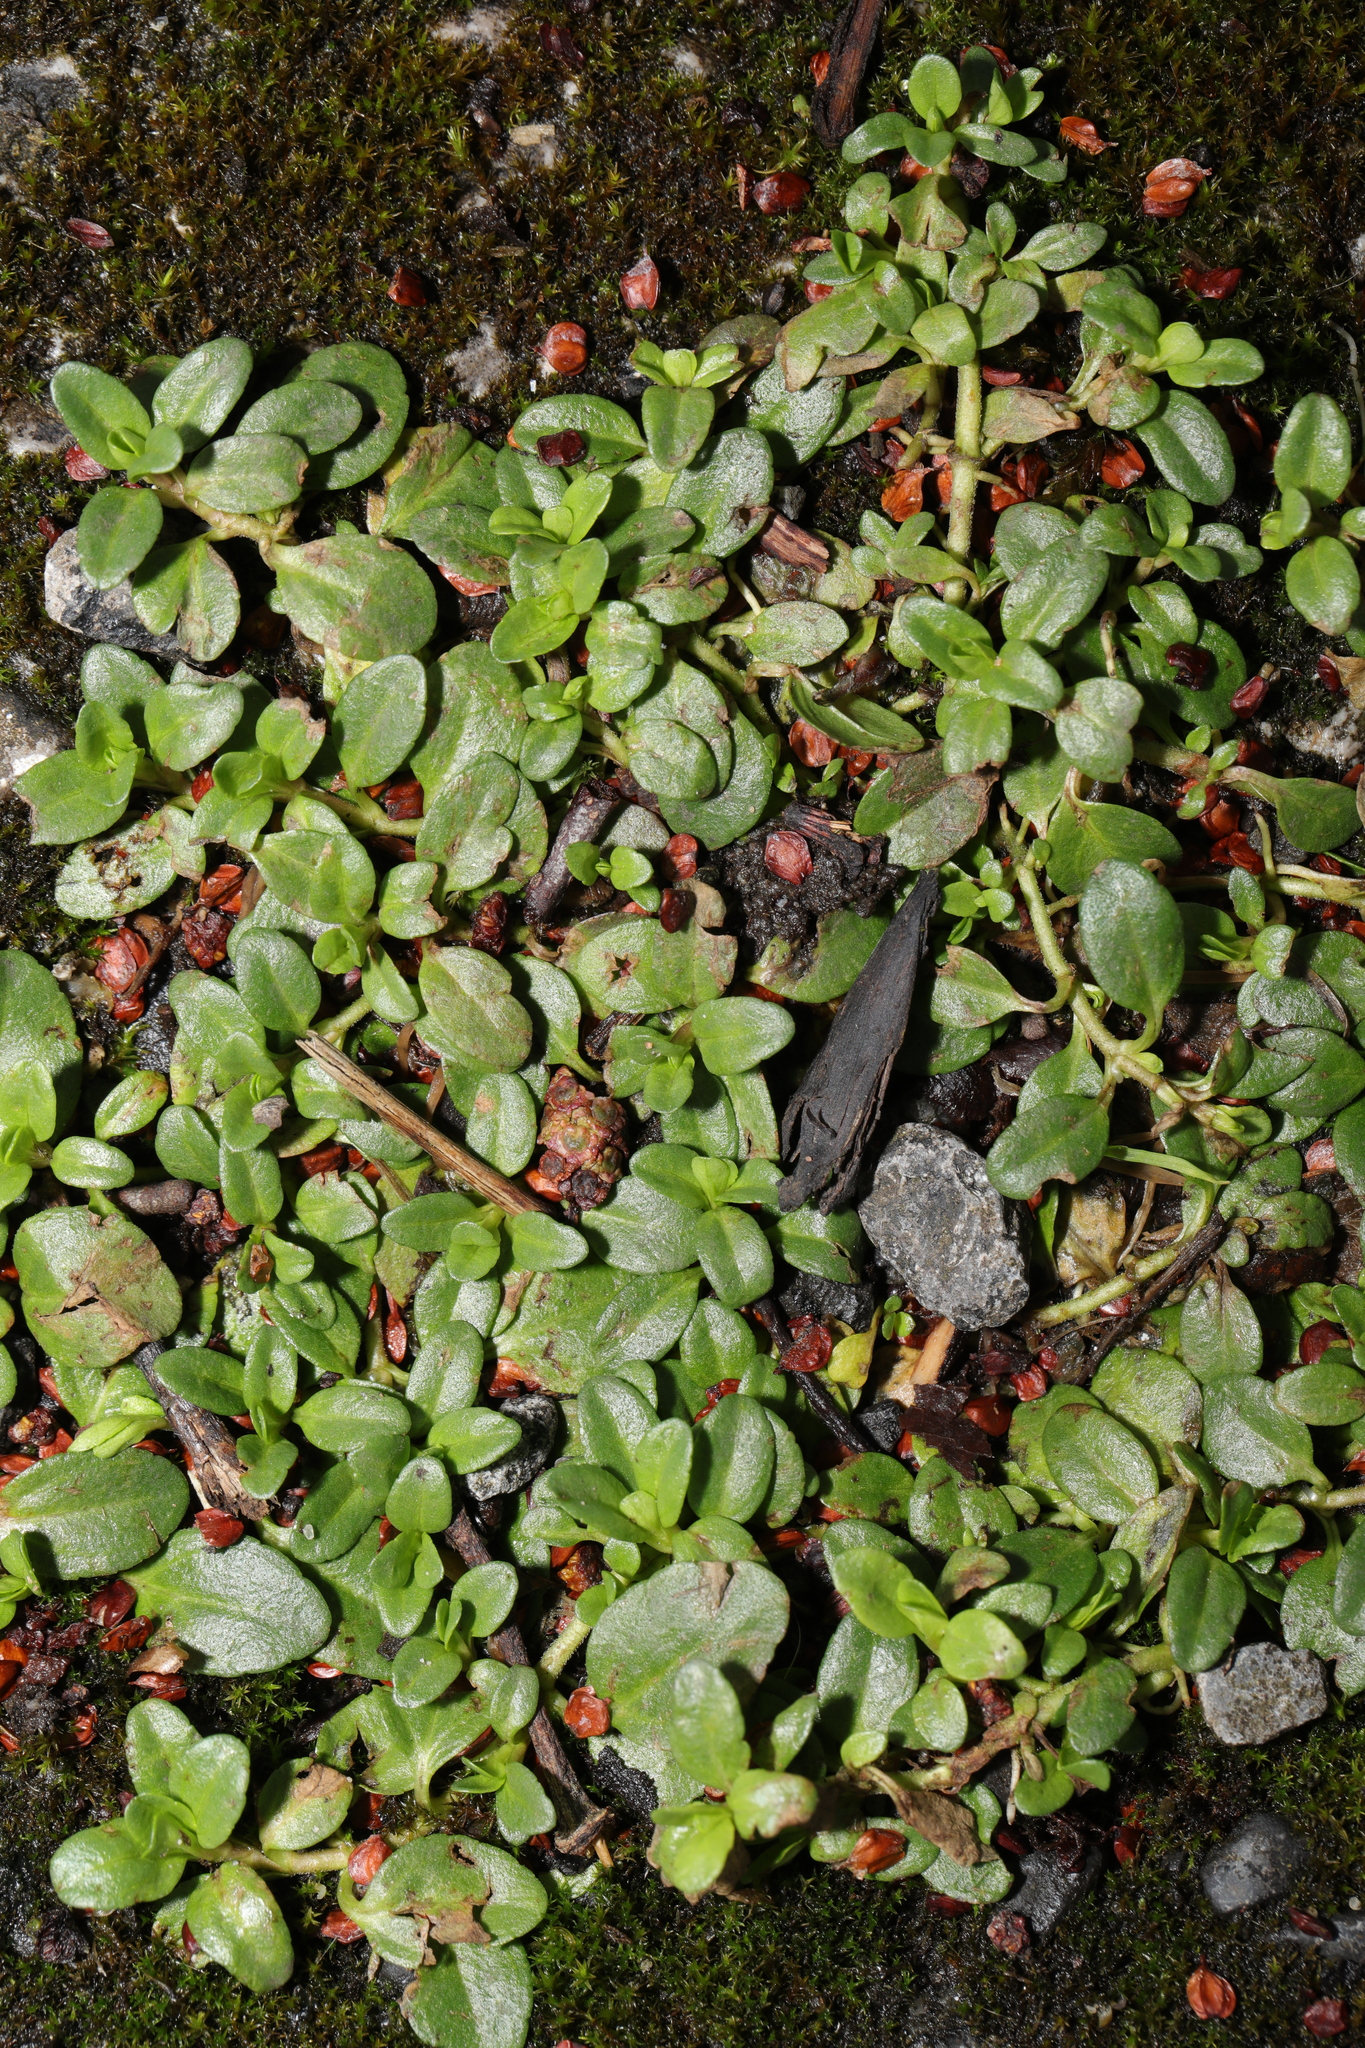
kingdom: Plantae
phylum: Tracheophyta
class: Magnoliopsida
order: Lamiales
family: Plantaginaceae
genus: Veronica
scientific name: Veronica serpyllifolia
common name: Thyme-leaved speedwell
